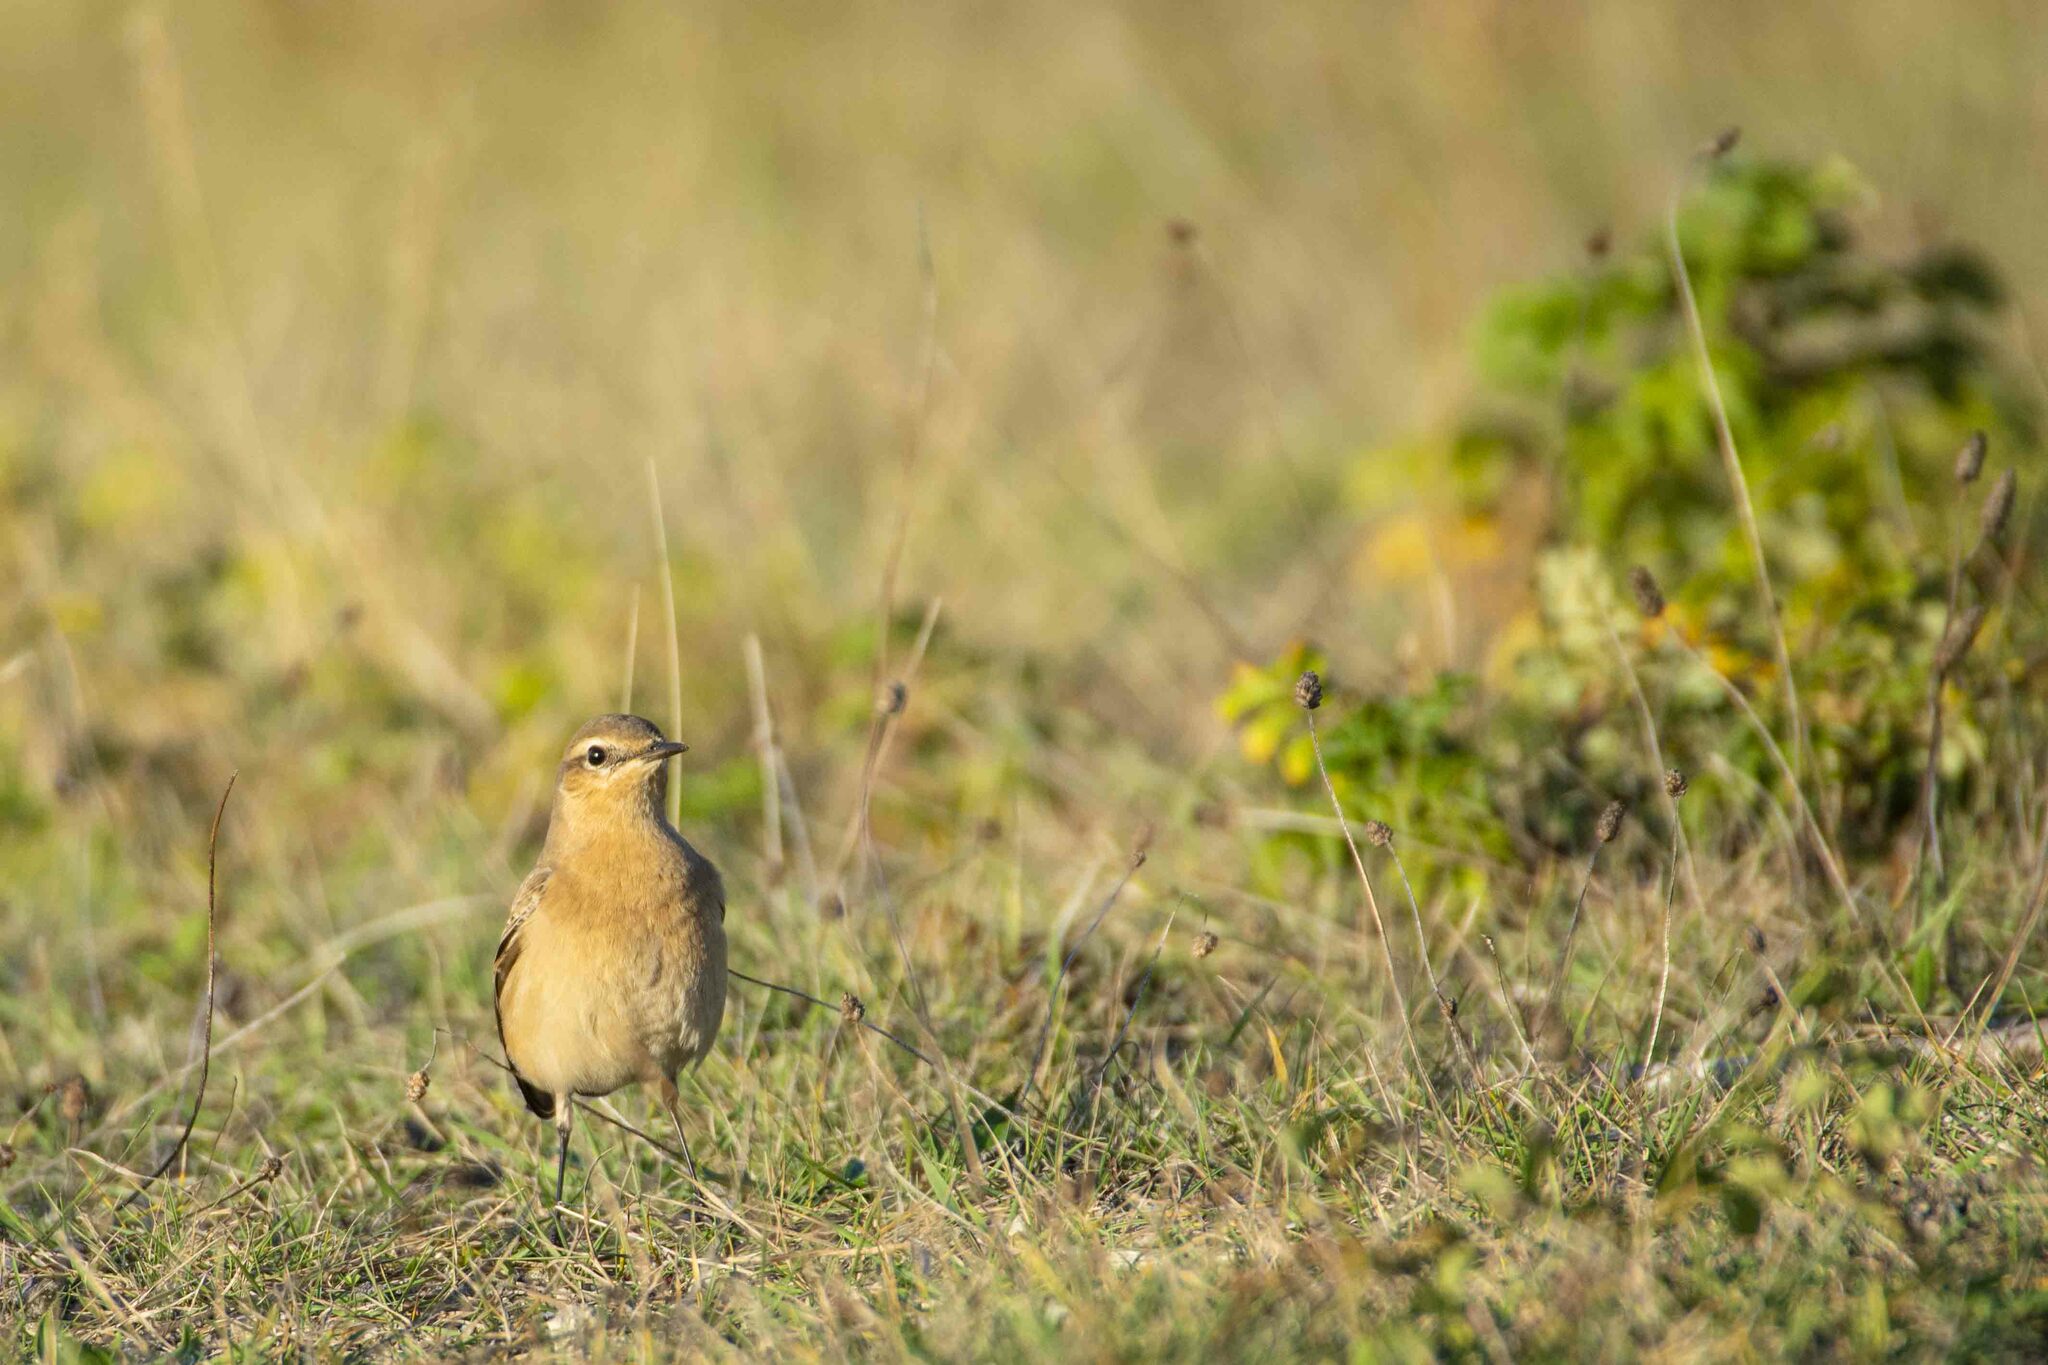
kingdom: Animalia
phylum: Chordata
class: Aves
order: Passeriformes
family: Muscicapidae
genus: Oenanthe
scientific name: Oenanthe oenanthe
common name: Northern wheatear
